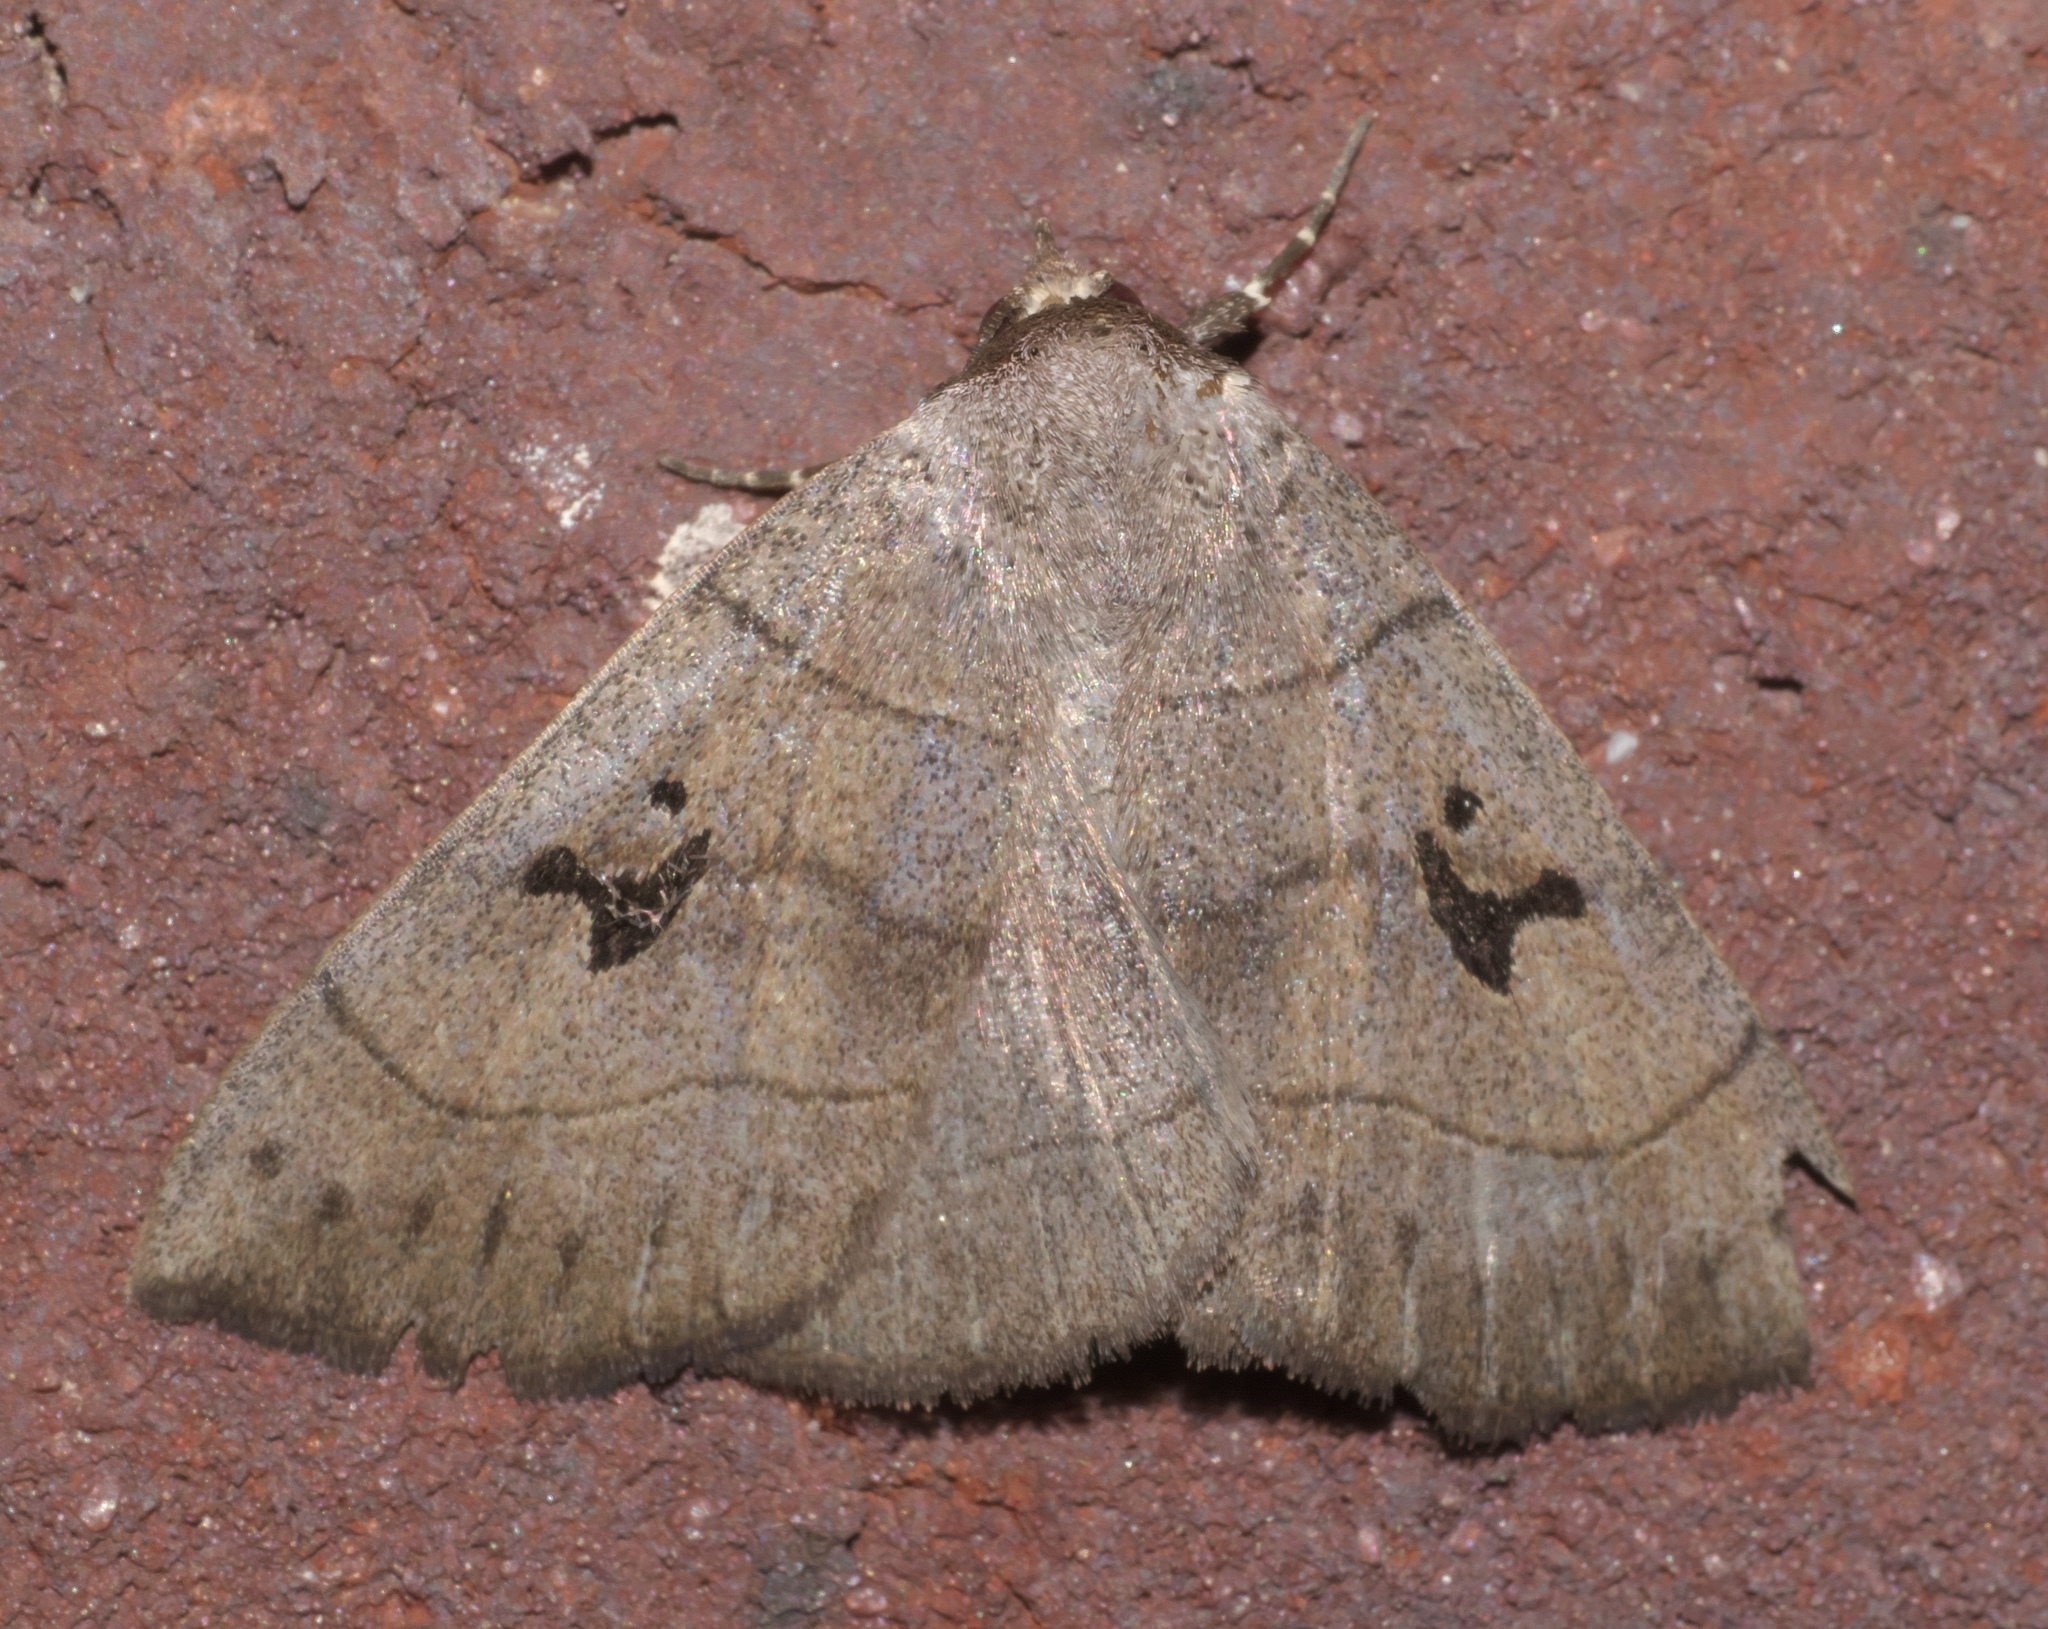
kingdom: Animalia
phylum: Arthropoda
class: Insecta
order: Lepidoptera
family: Erebidae
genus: Panopoda
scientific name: Panopoda carneicosta
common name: Brown panopoda moth
